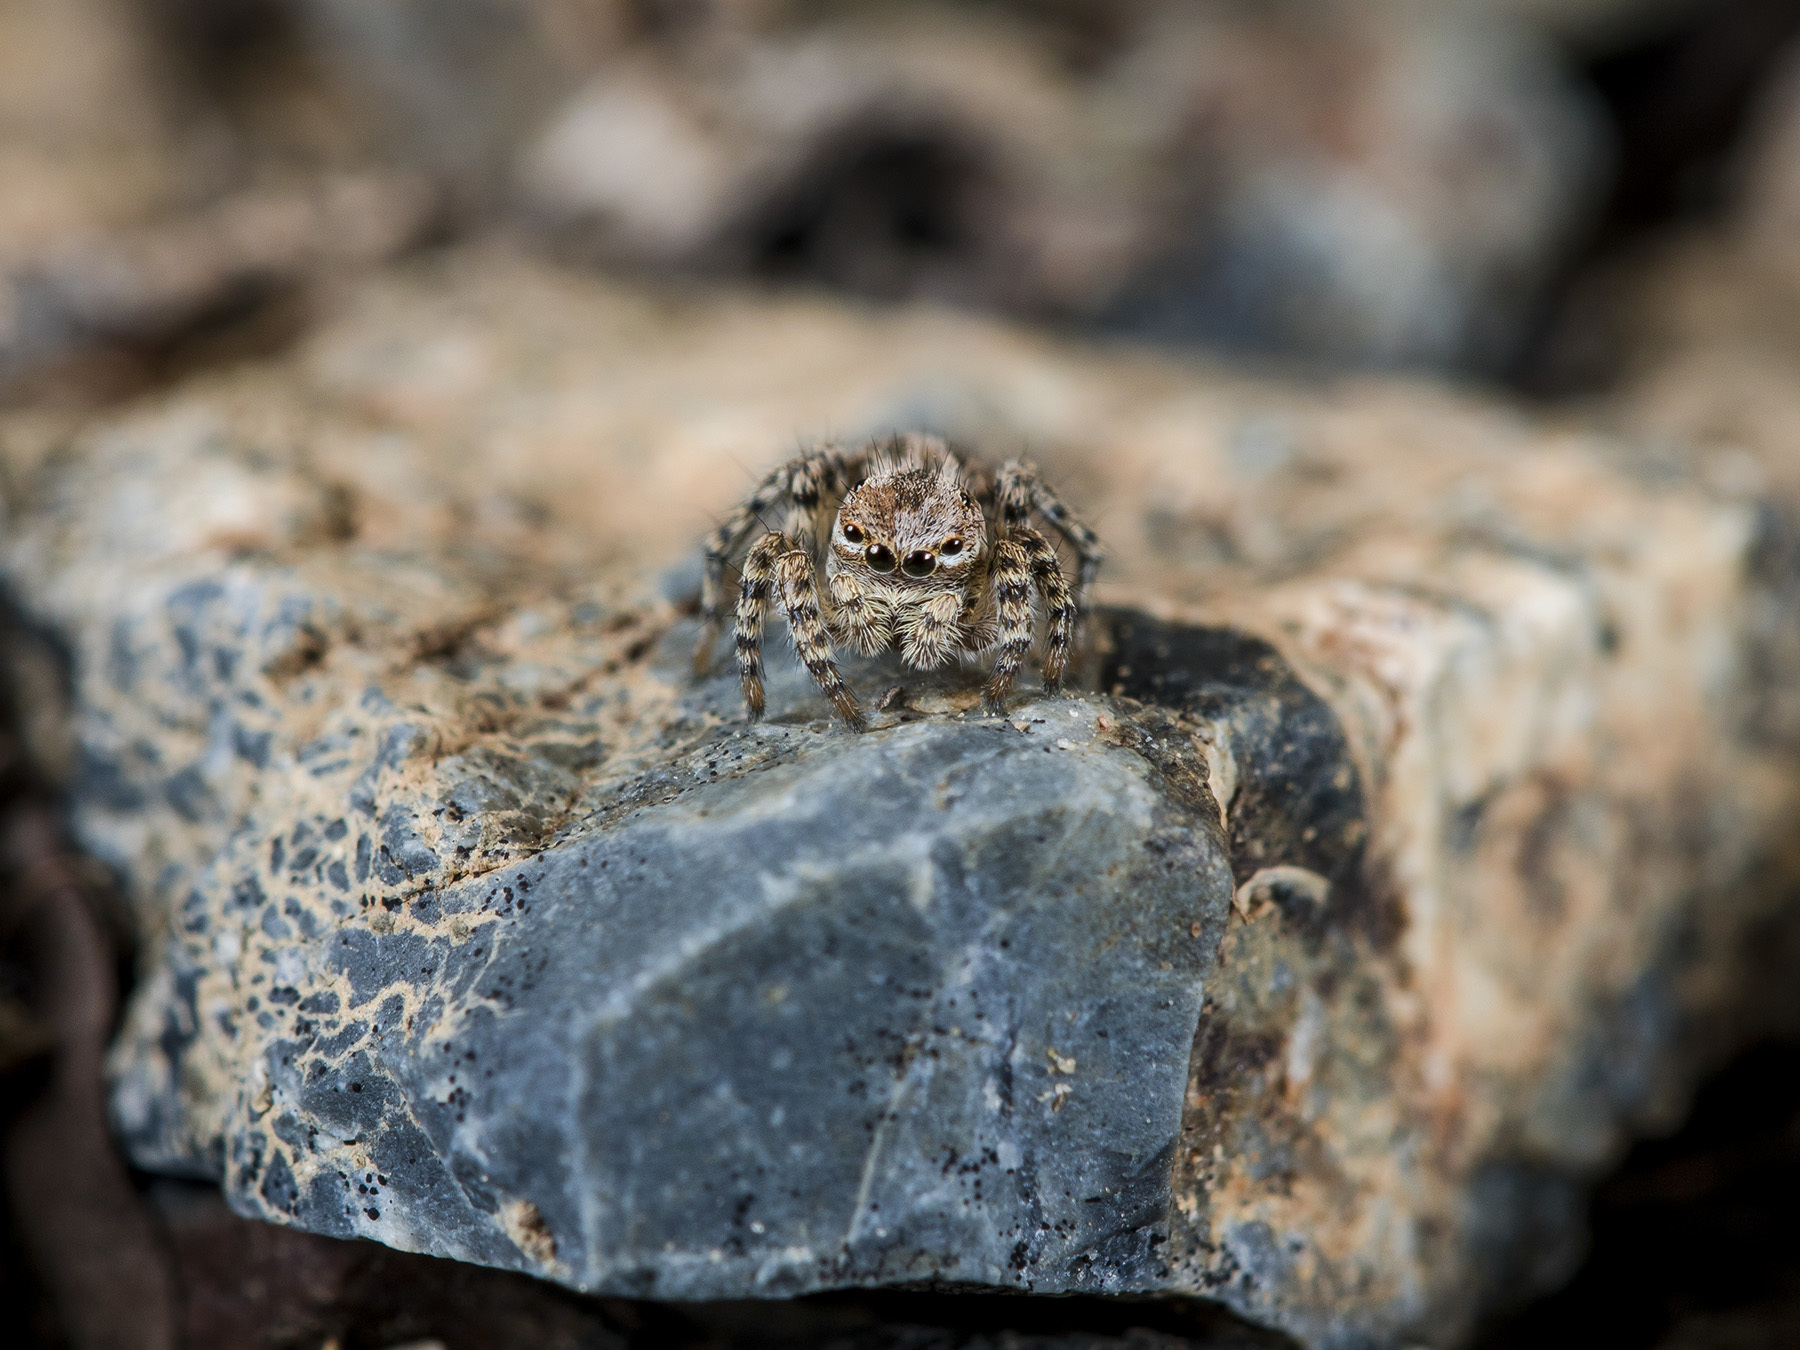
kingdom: Animalia
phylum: Arthropoda
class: Arachnida
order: Araneae
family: Salticidae
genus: Aelurillus
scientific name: Aelurillus v-insignitus
